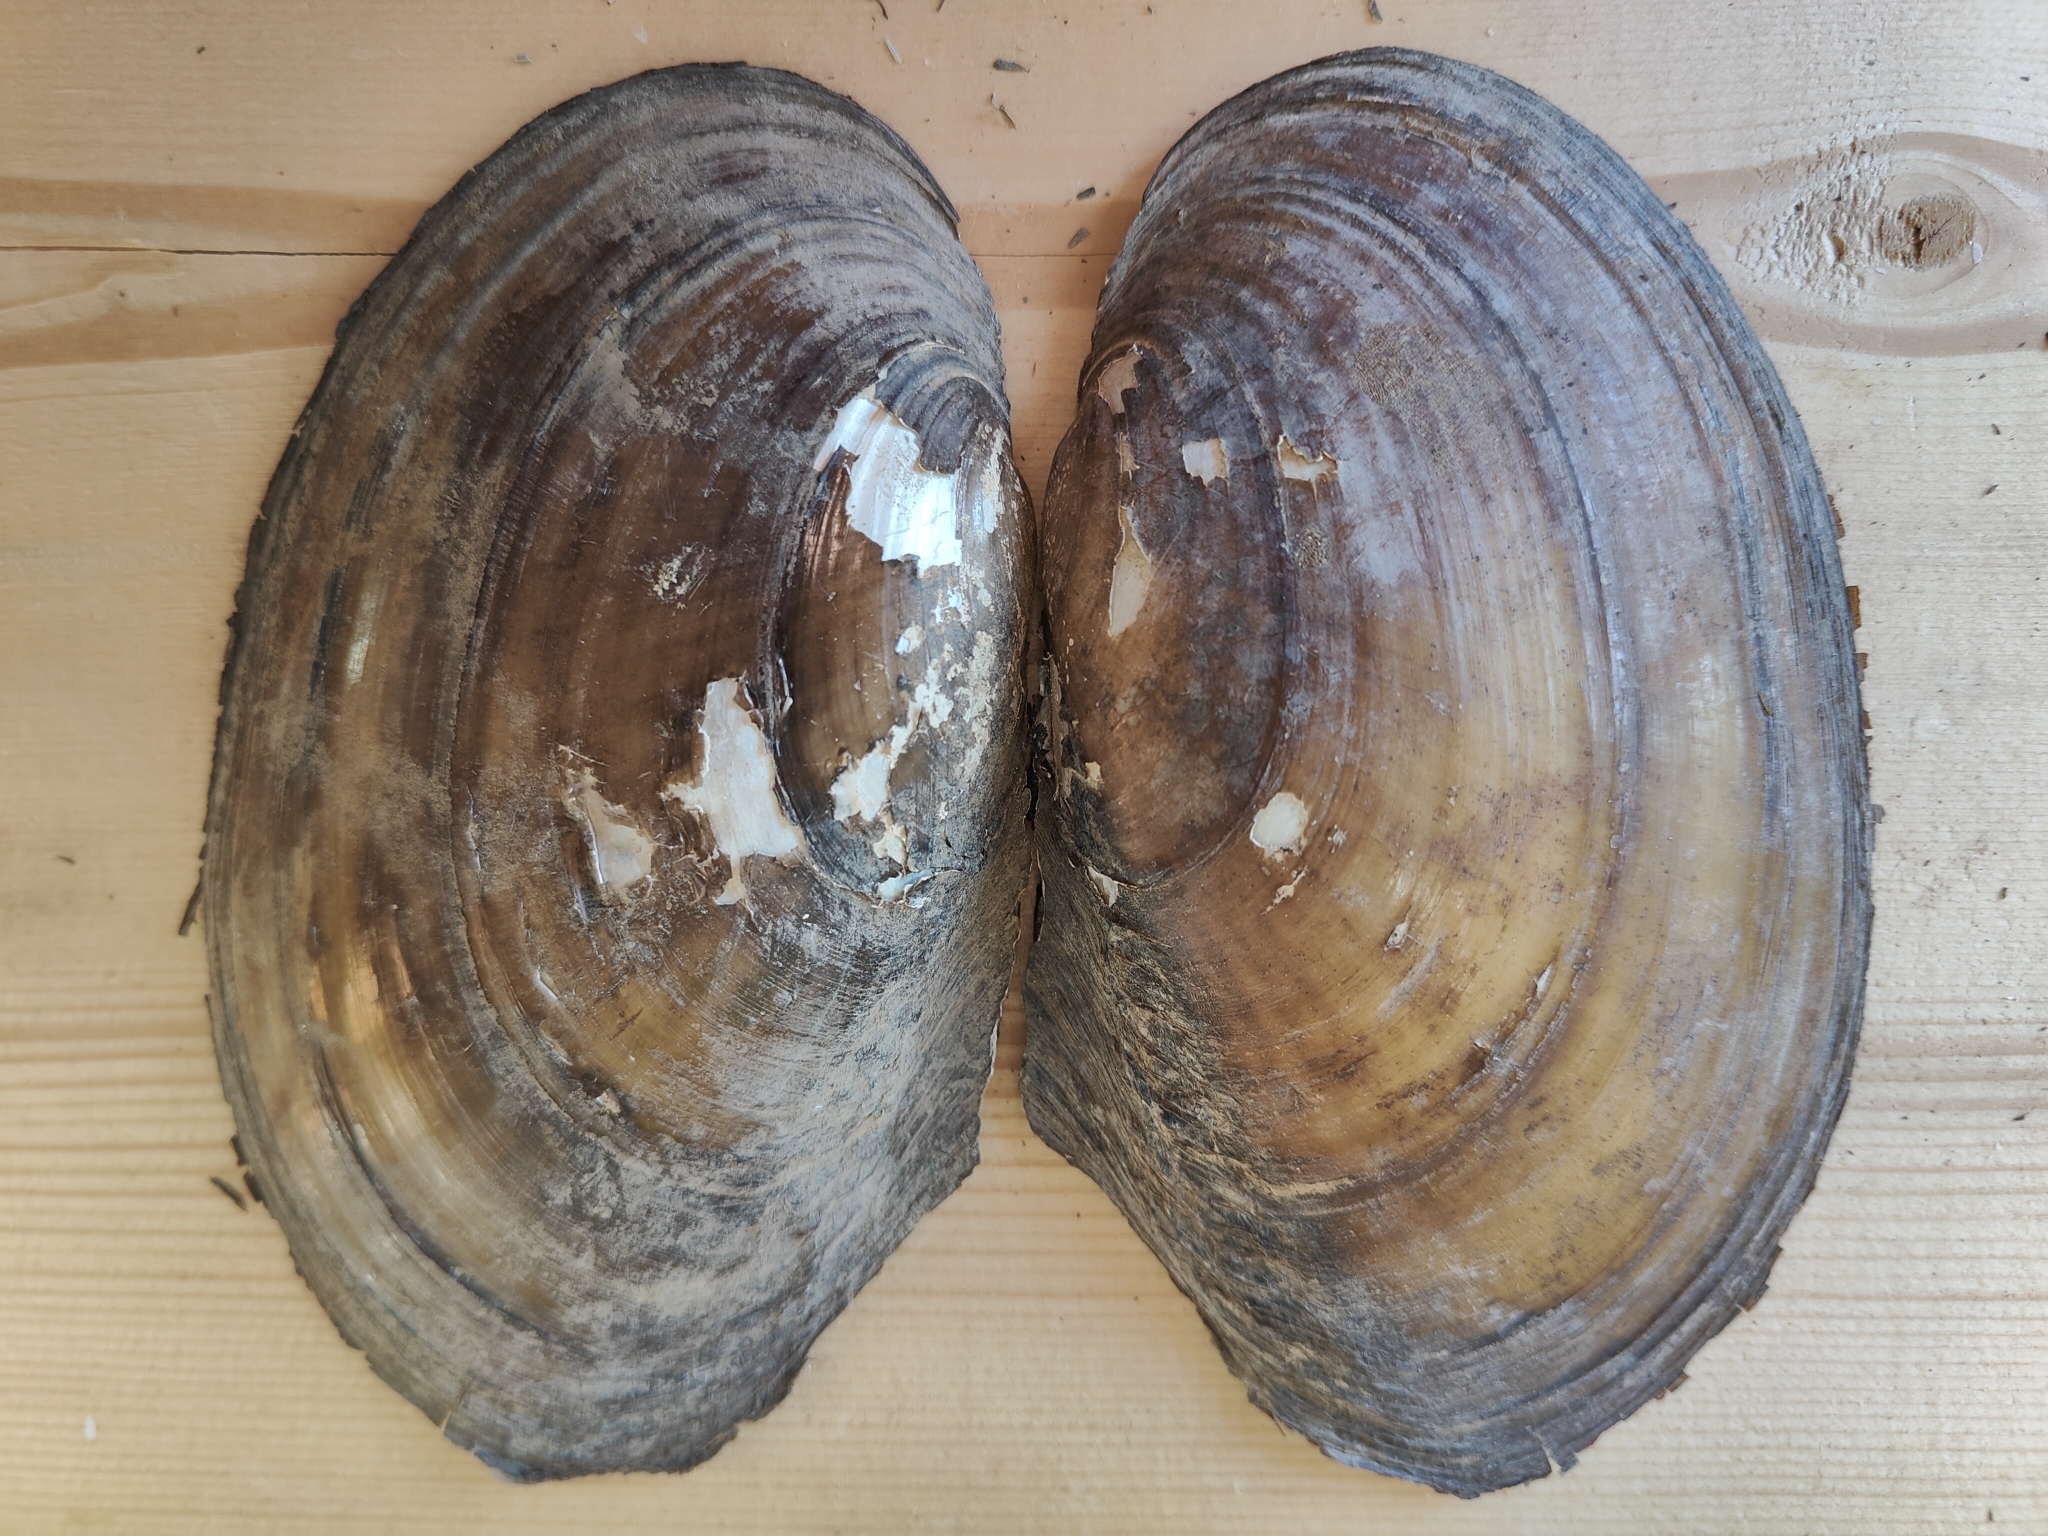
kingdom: Animalia
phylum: Mollusca
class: Bivalvia
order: Unionida
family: Unionidae
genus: Potamilus
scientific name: Potamilus fragilis
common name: Fragile papershell
